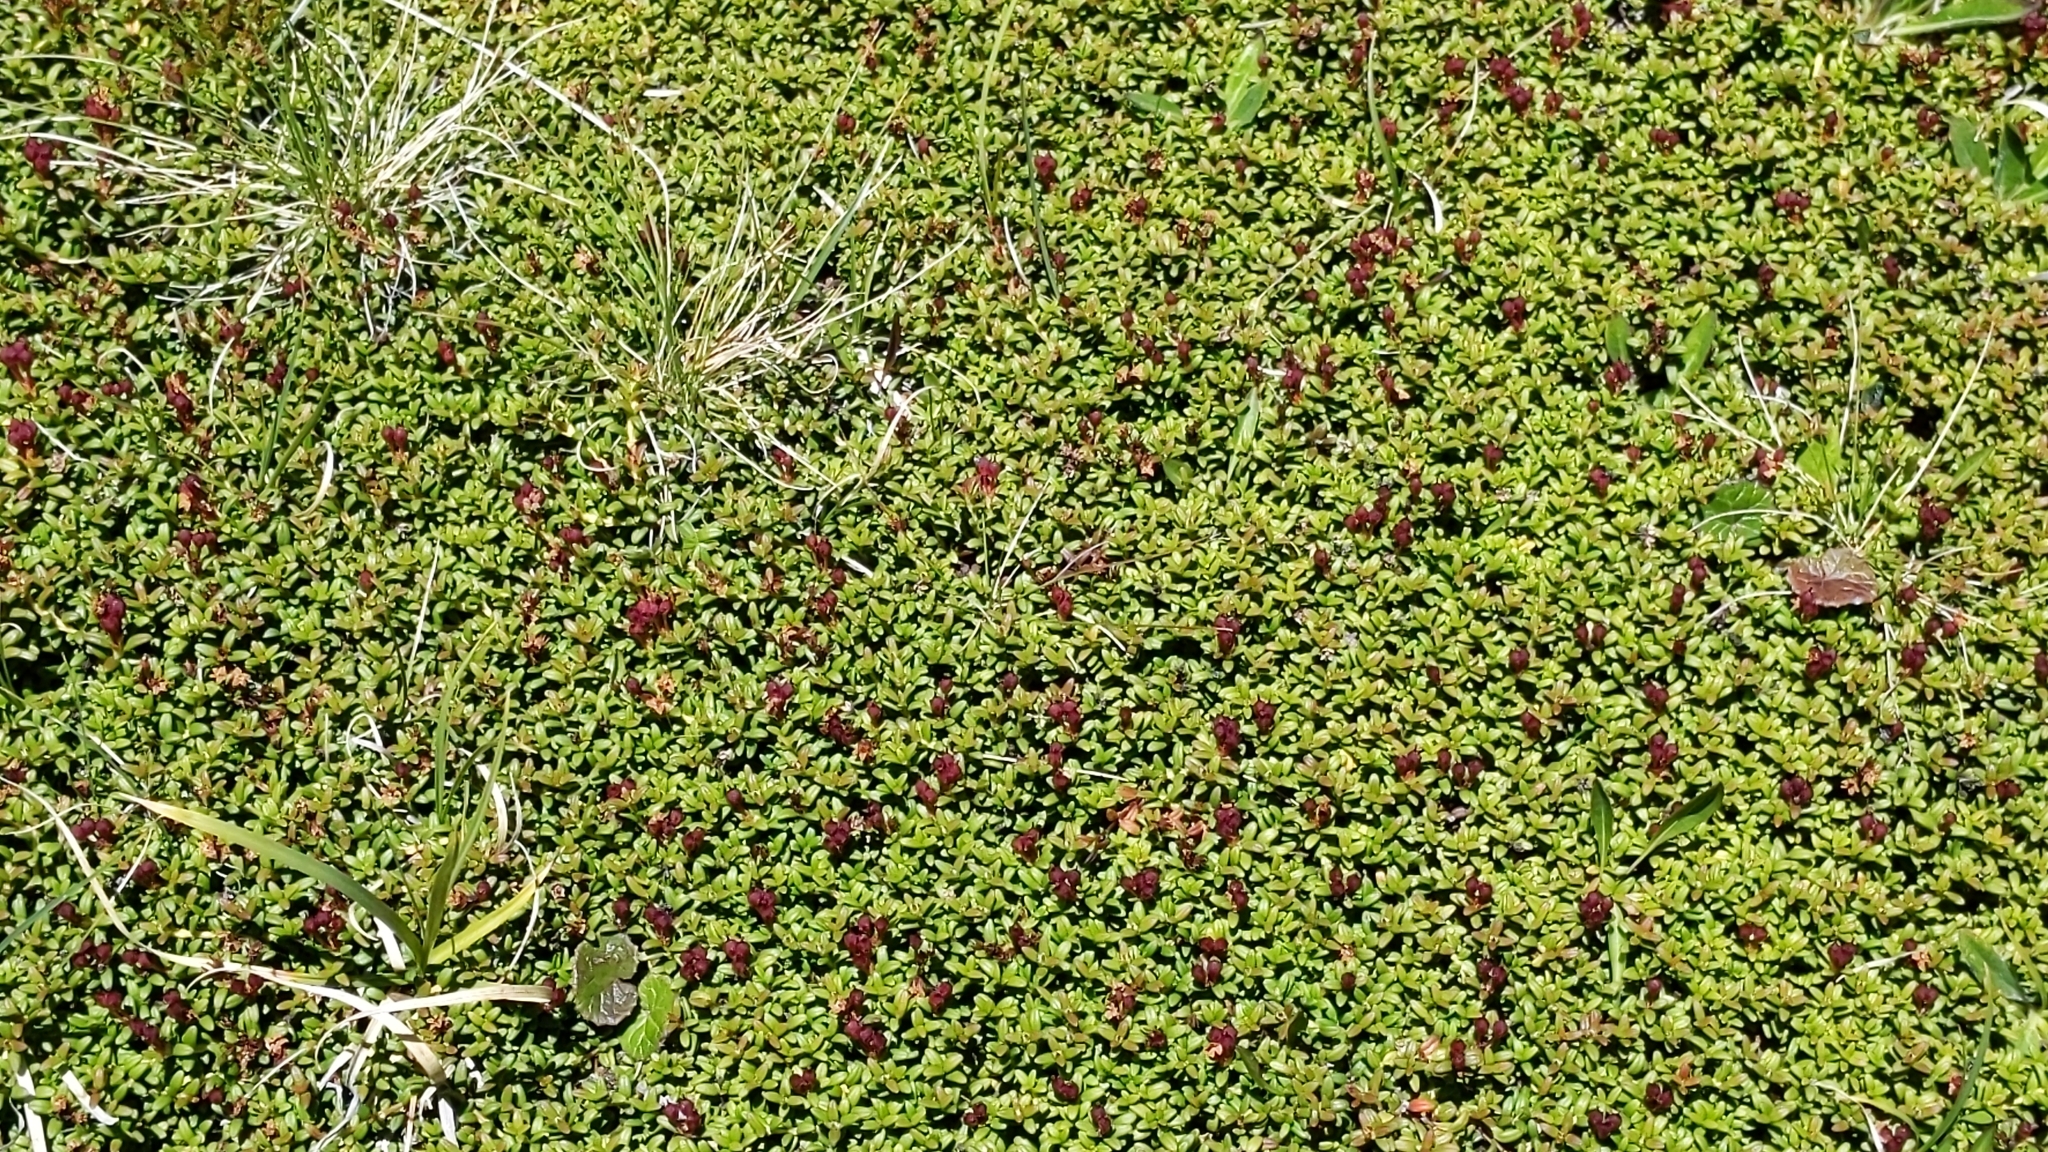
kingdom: Plantae
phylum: Tracheophyta
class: Magnoliopsida
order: Ericales
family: Ericaceae
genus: Kalmia
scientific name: Kalmia procumbens
